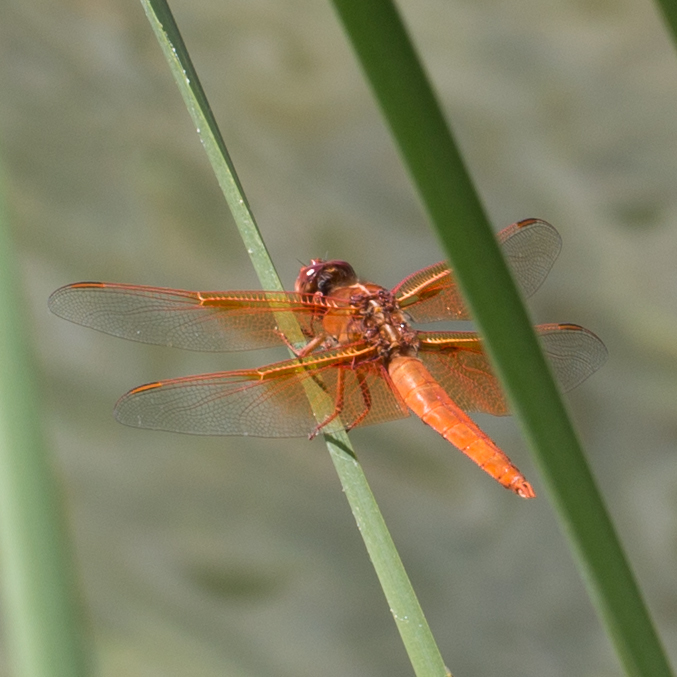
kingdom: Animalia
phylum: Arthropoda
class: Insecta
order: Odonata
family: Libellulidae
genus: Libellula
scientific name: Libellula saturata
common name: Flame skimmer
